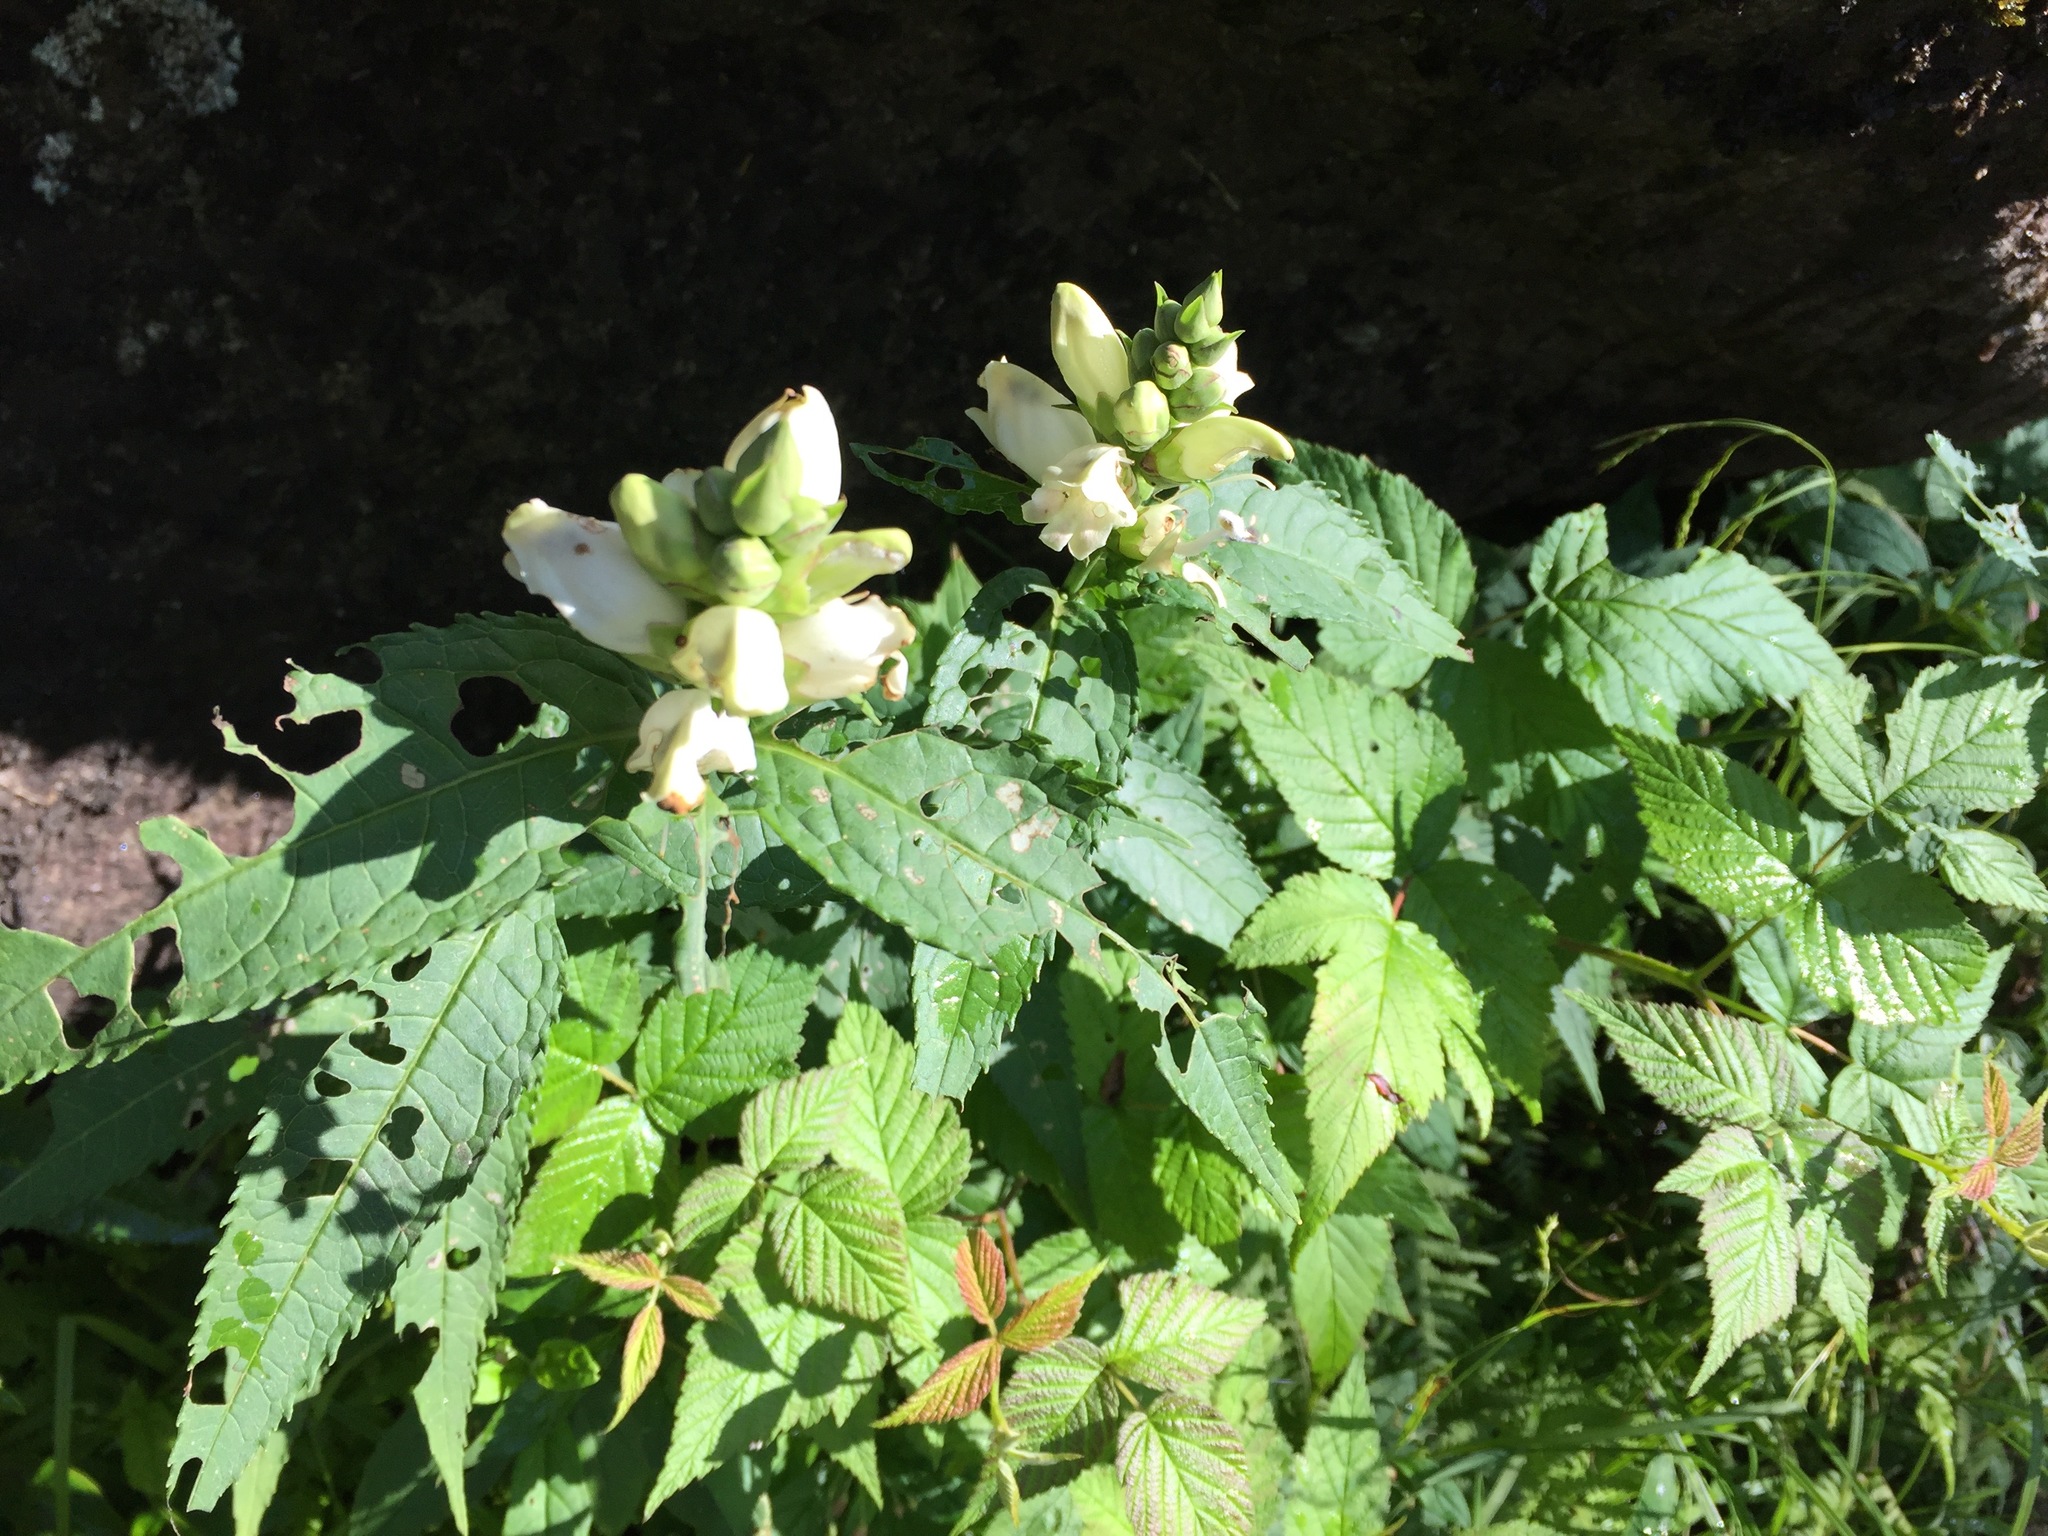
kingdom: Plantae
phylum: Tracheophyta
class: Magnoliopsida
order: Lamiales
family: Plantaginaceae
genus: Chelone
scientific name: Chelone glabra
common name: Snakehead
